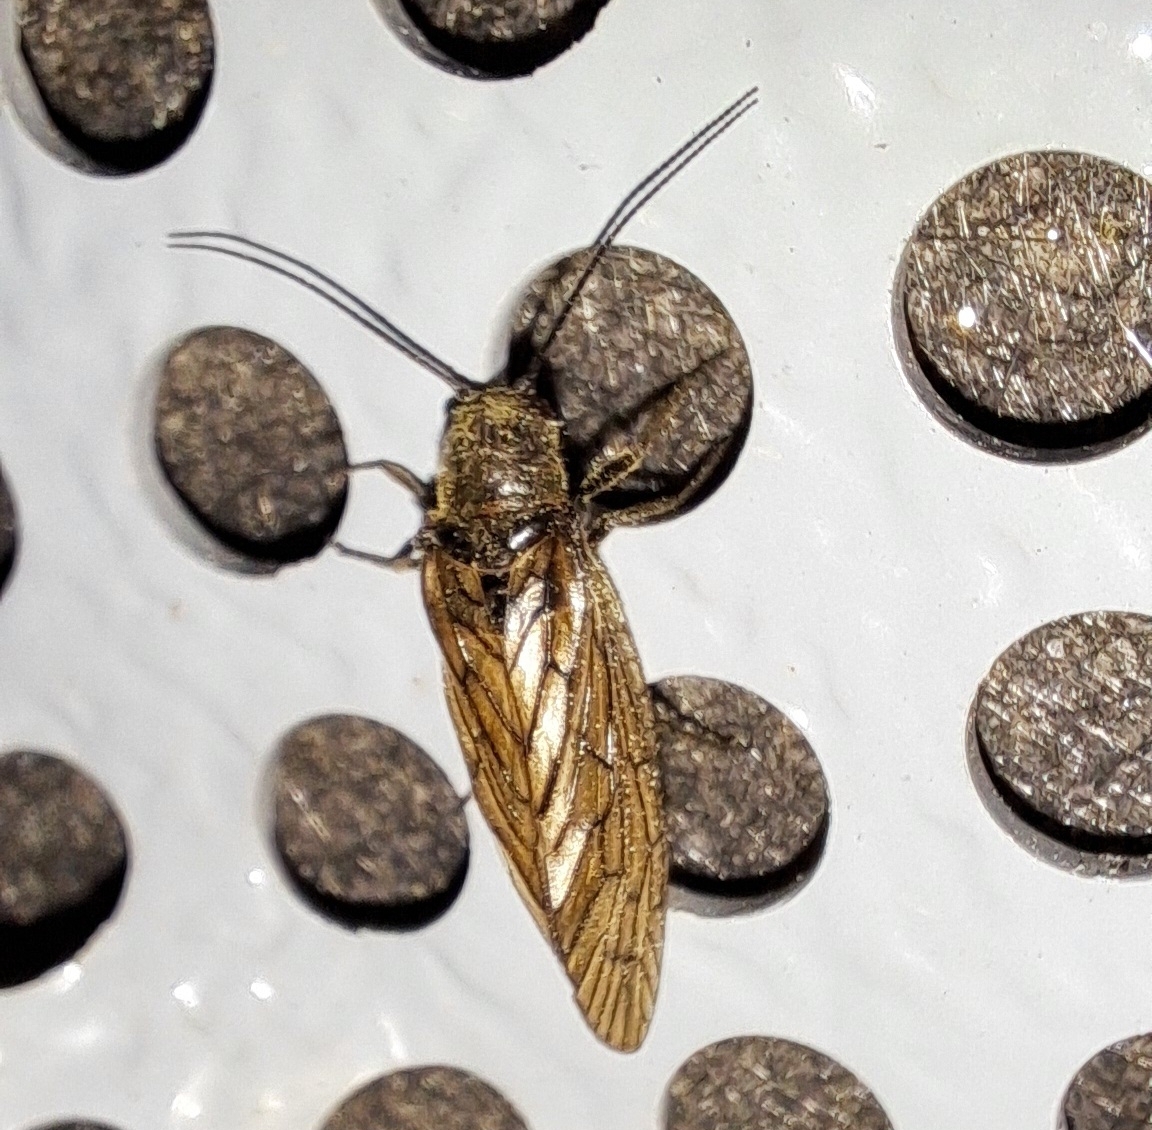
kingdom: Animalia
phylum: Arthropoda
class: Insecta
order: Megaloptera
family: Sialidae
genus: Sialis
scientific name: Sialis
